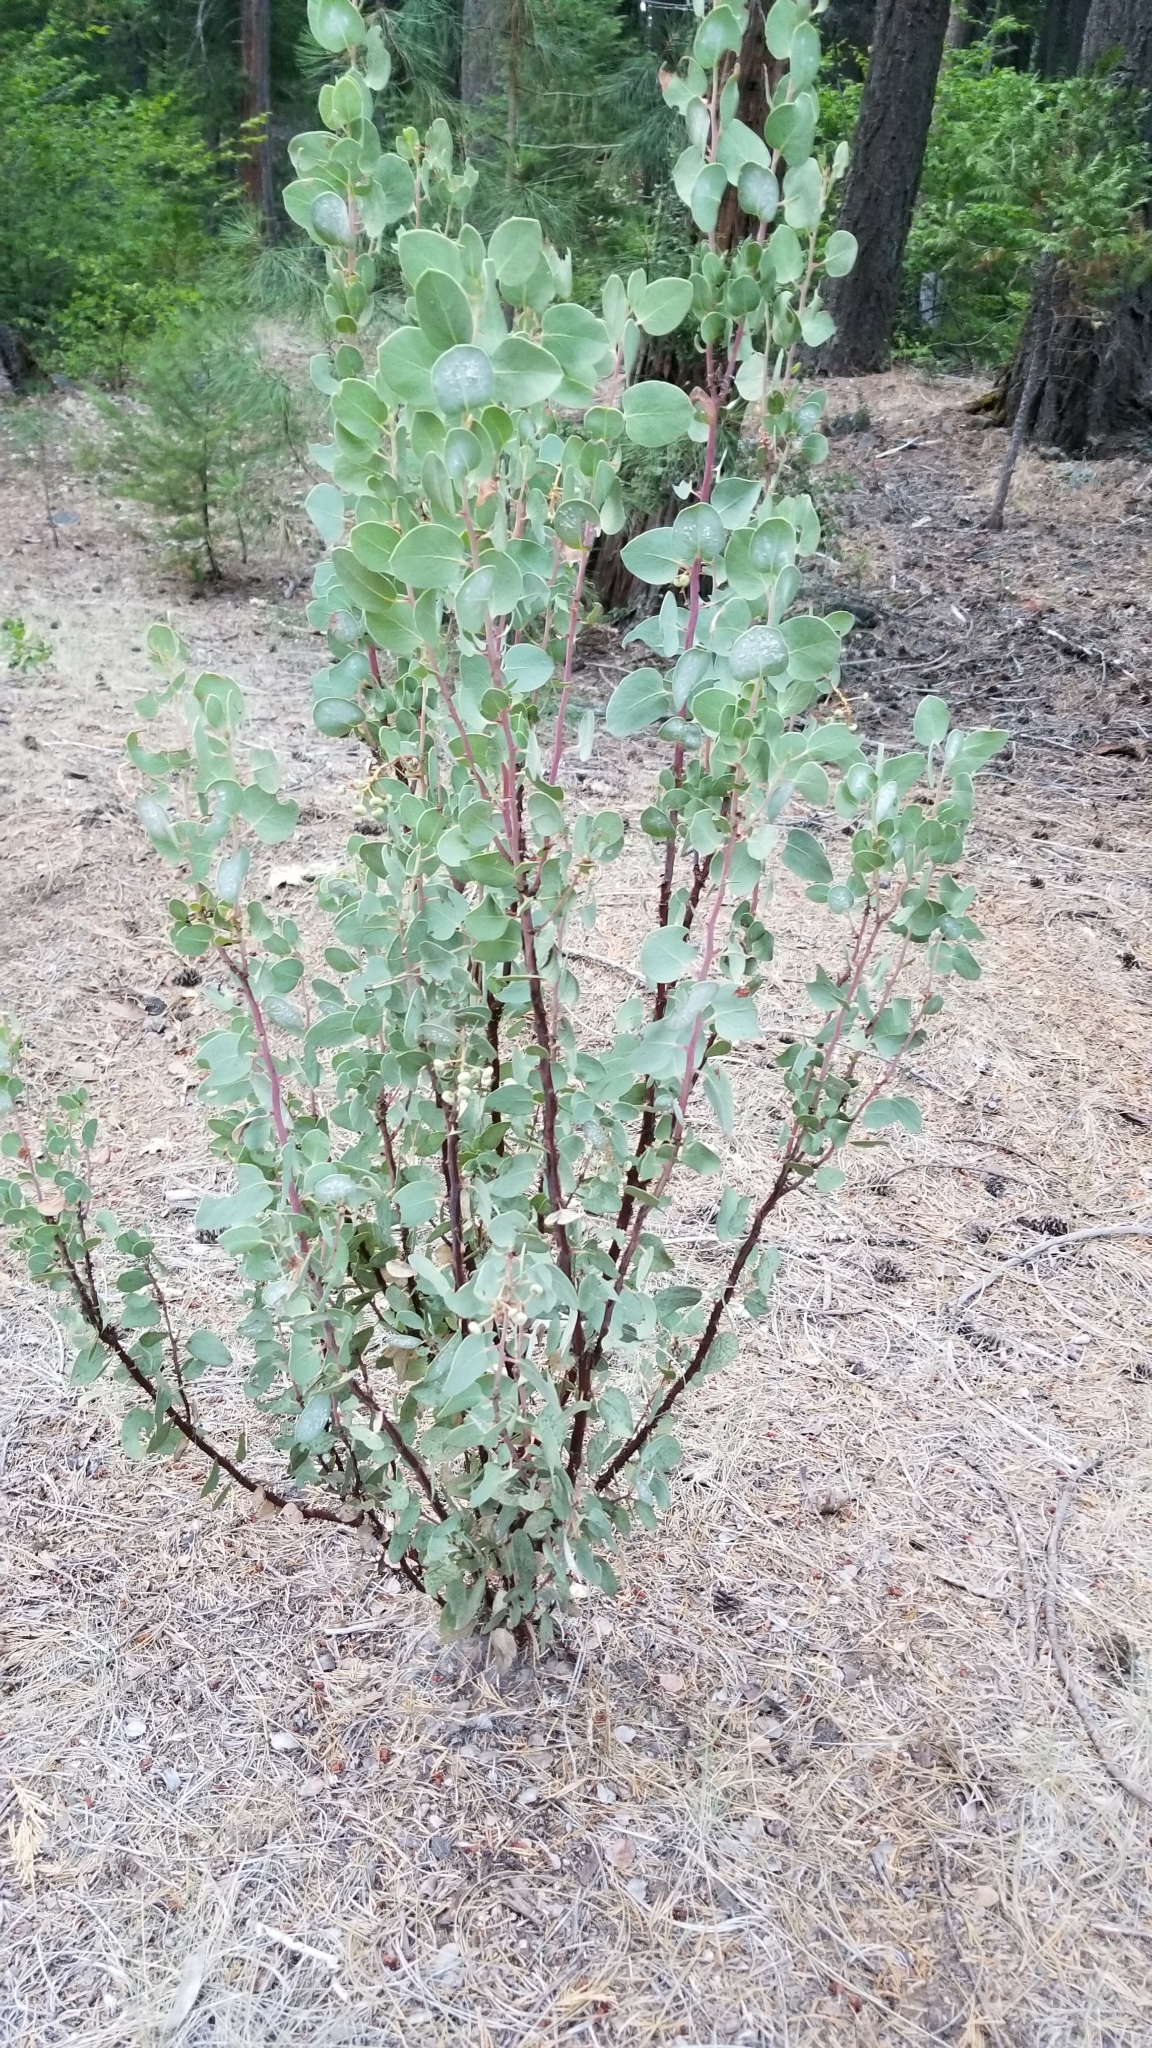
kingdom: Plantae
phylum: Tracheophyta
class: Magnoliopsida
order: Ericales
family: Ericaceae
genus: Arctostaphylos
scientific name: Arctostaphylos viscida
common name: White-leaf manzanita
